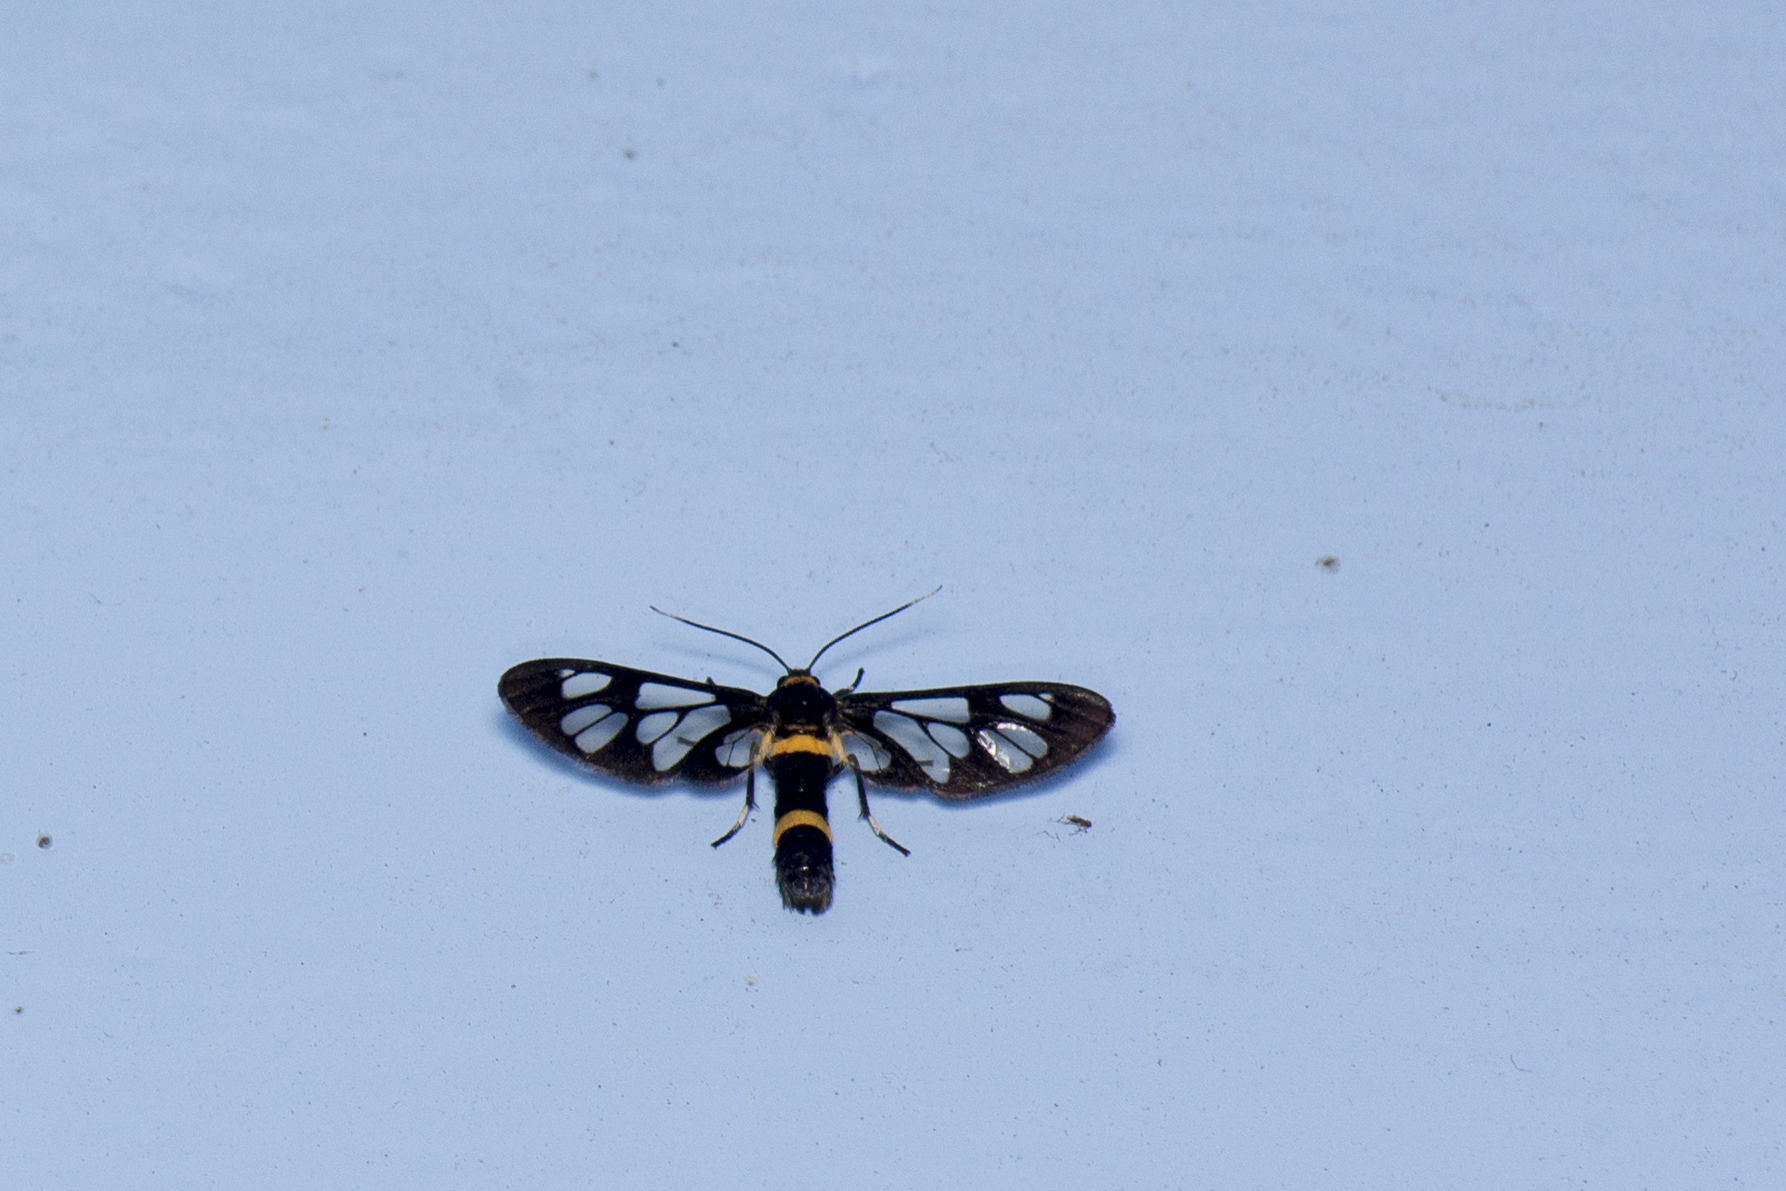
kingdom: Animalia
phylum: Arthropoda
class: Insecta
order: Lepidoptera
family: Erebidae
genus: Syntomoides
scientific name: Syntomoides imaon
